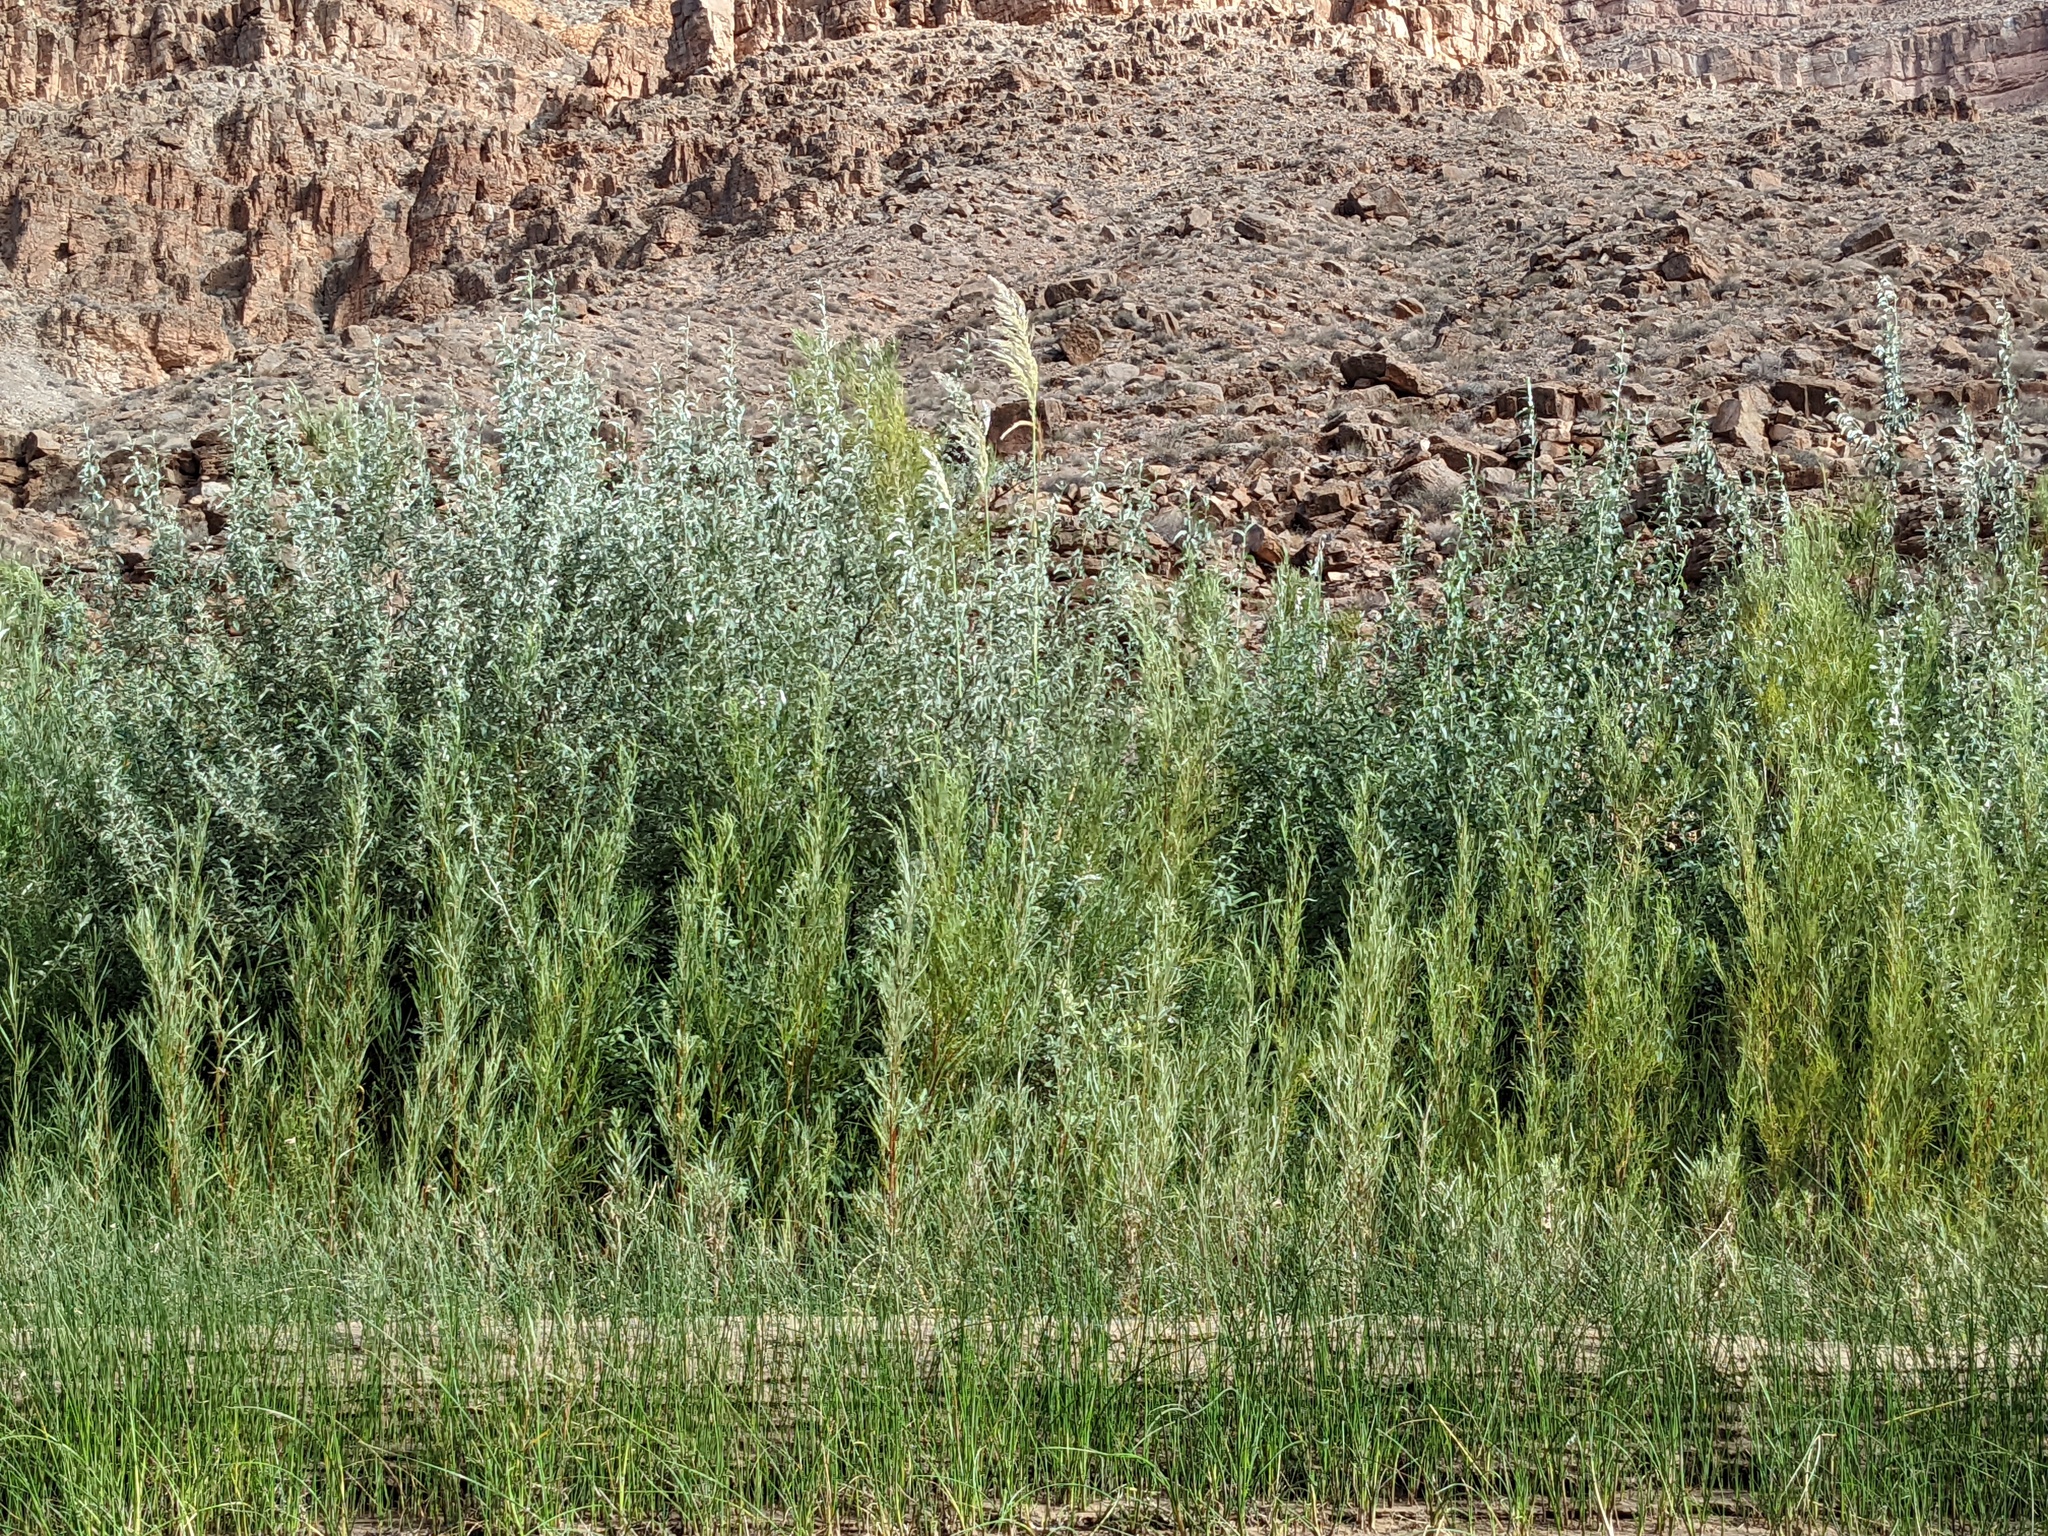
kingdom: Plantae
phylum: Tracheophyta
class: Liliopsida
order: Poales
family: Poaceae
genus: Tripidium
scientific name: Tripidium ravennae
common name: Ravenna grass
